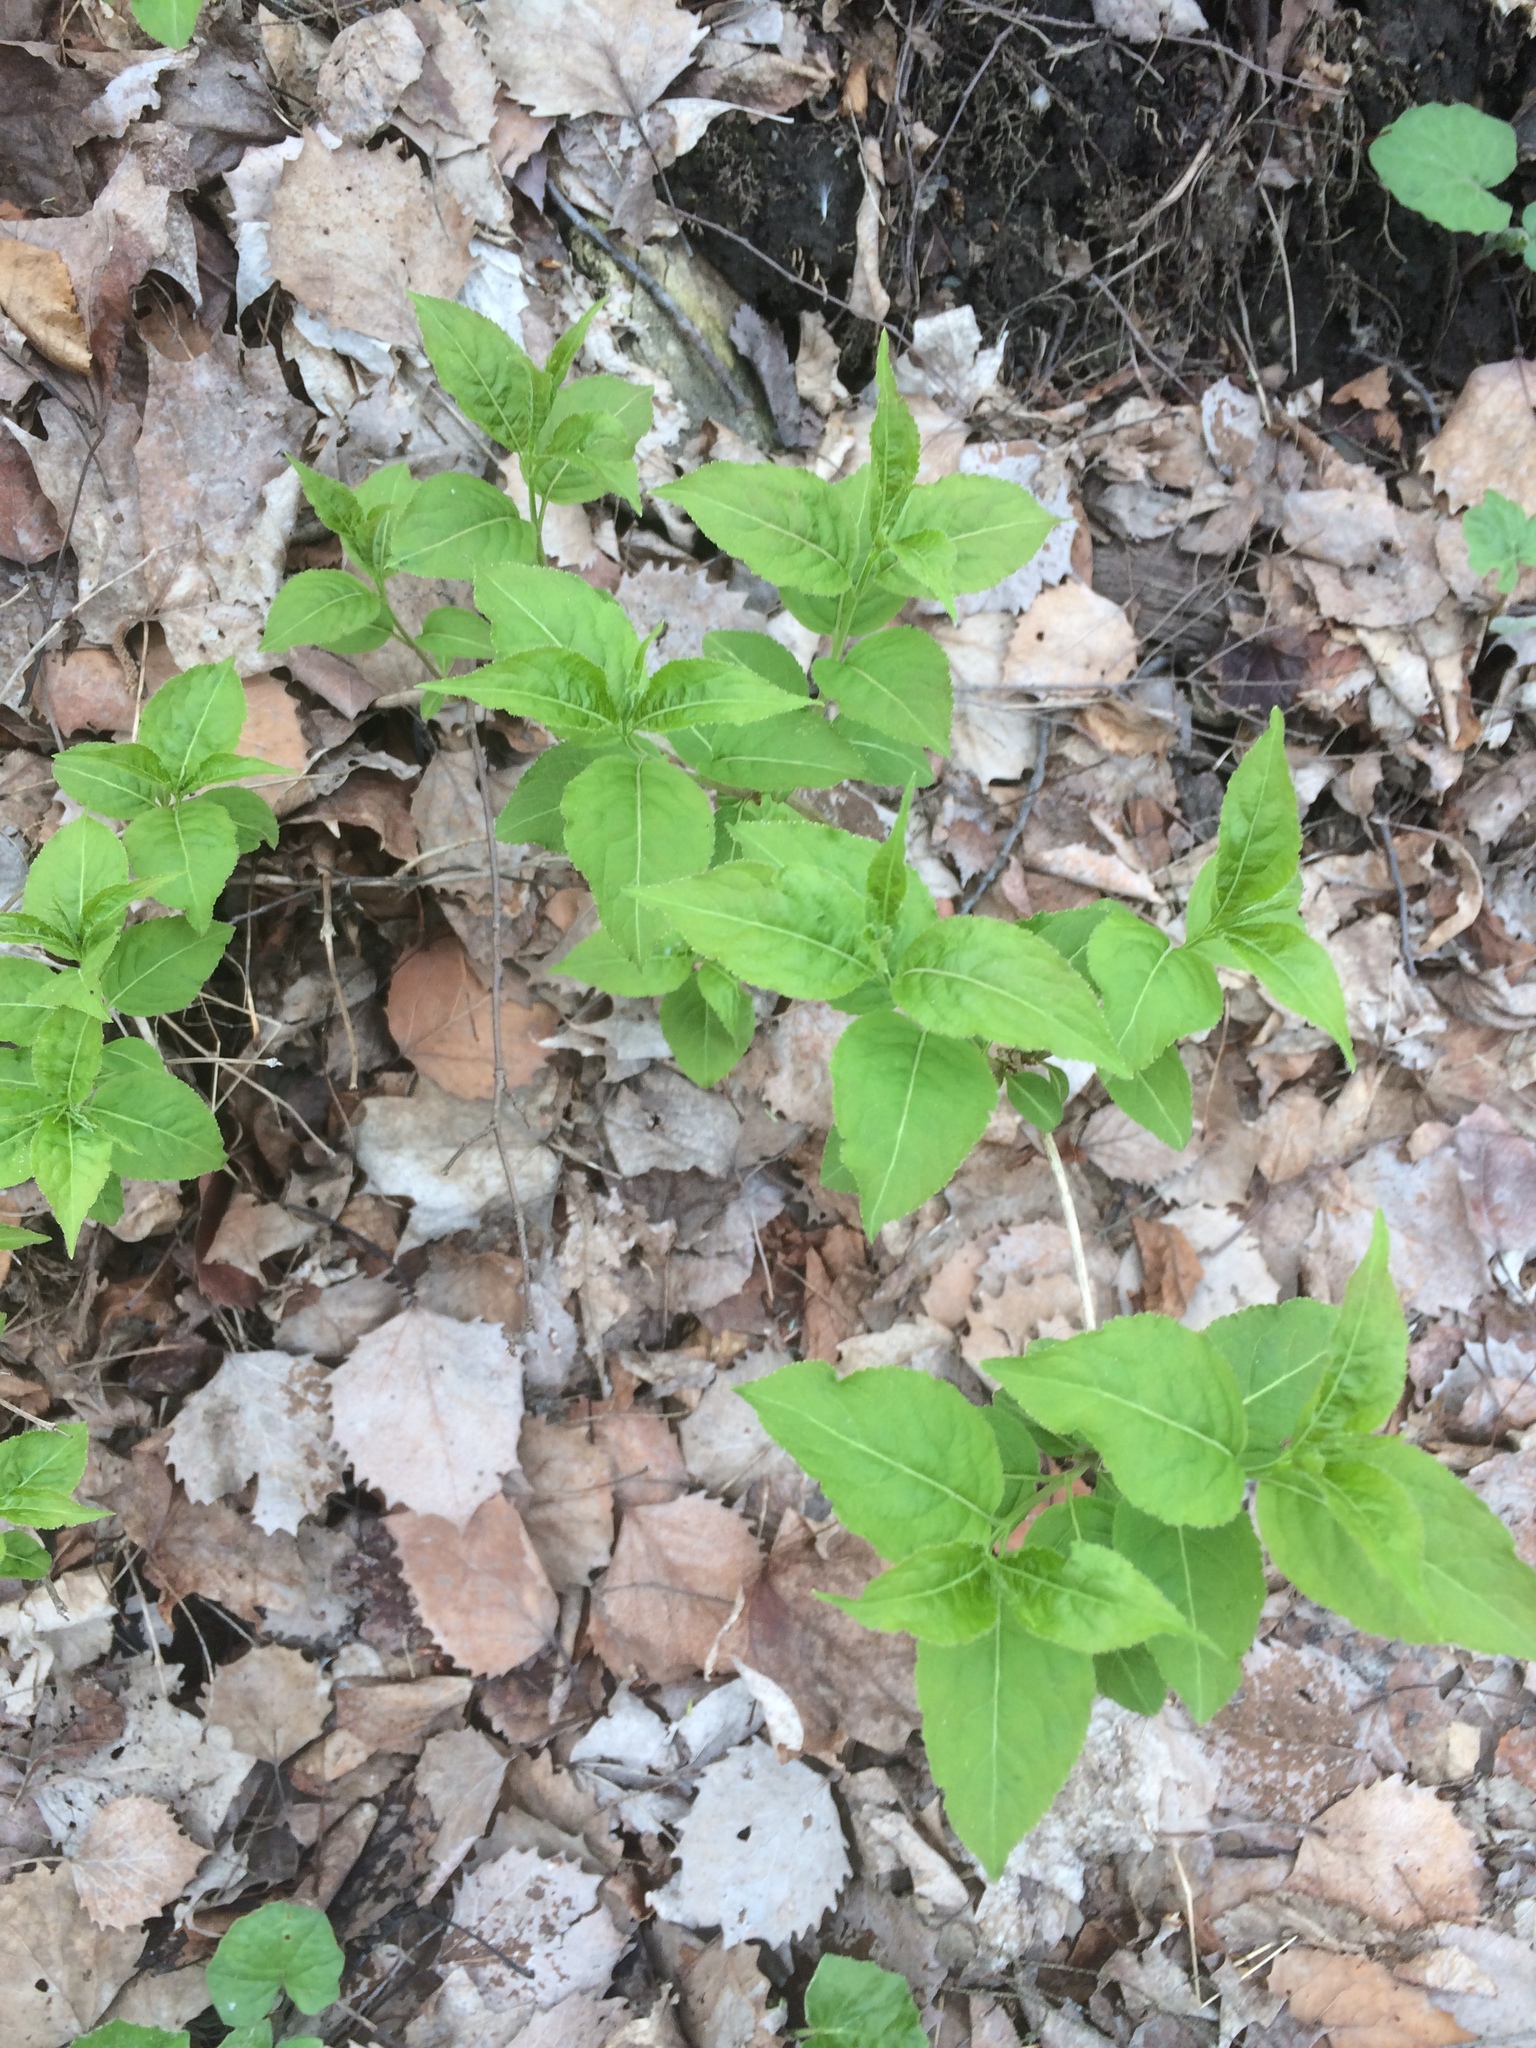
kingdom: Plantae
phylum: Tracheophyta
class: Magnoliopsida
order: Dipsacales
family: Caprifoliaceae
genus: Diervilla
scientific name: Diervilla lonicera
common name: Bush-honeysuckle
